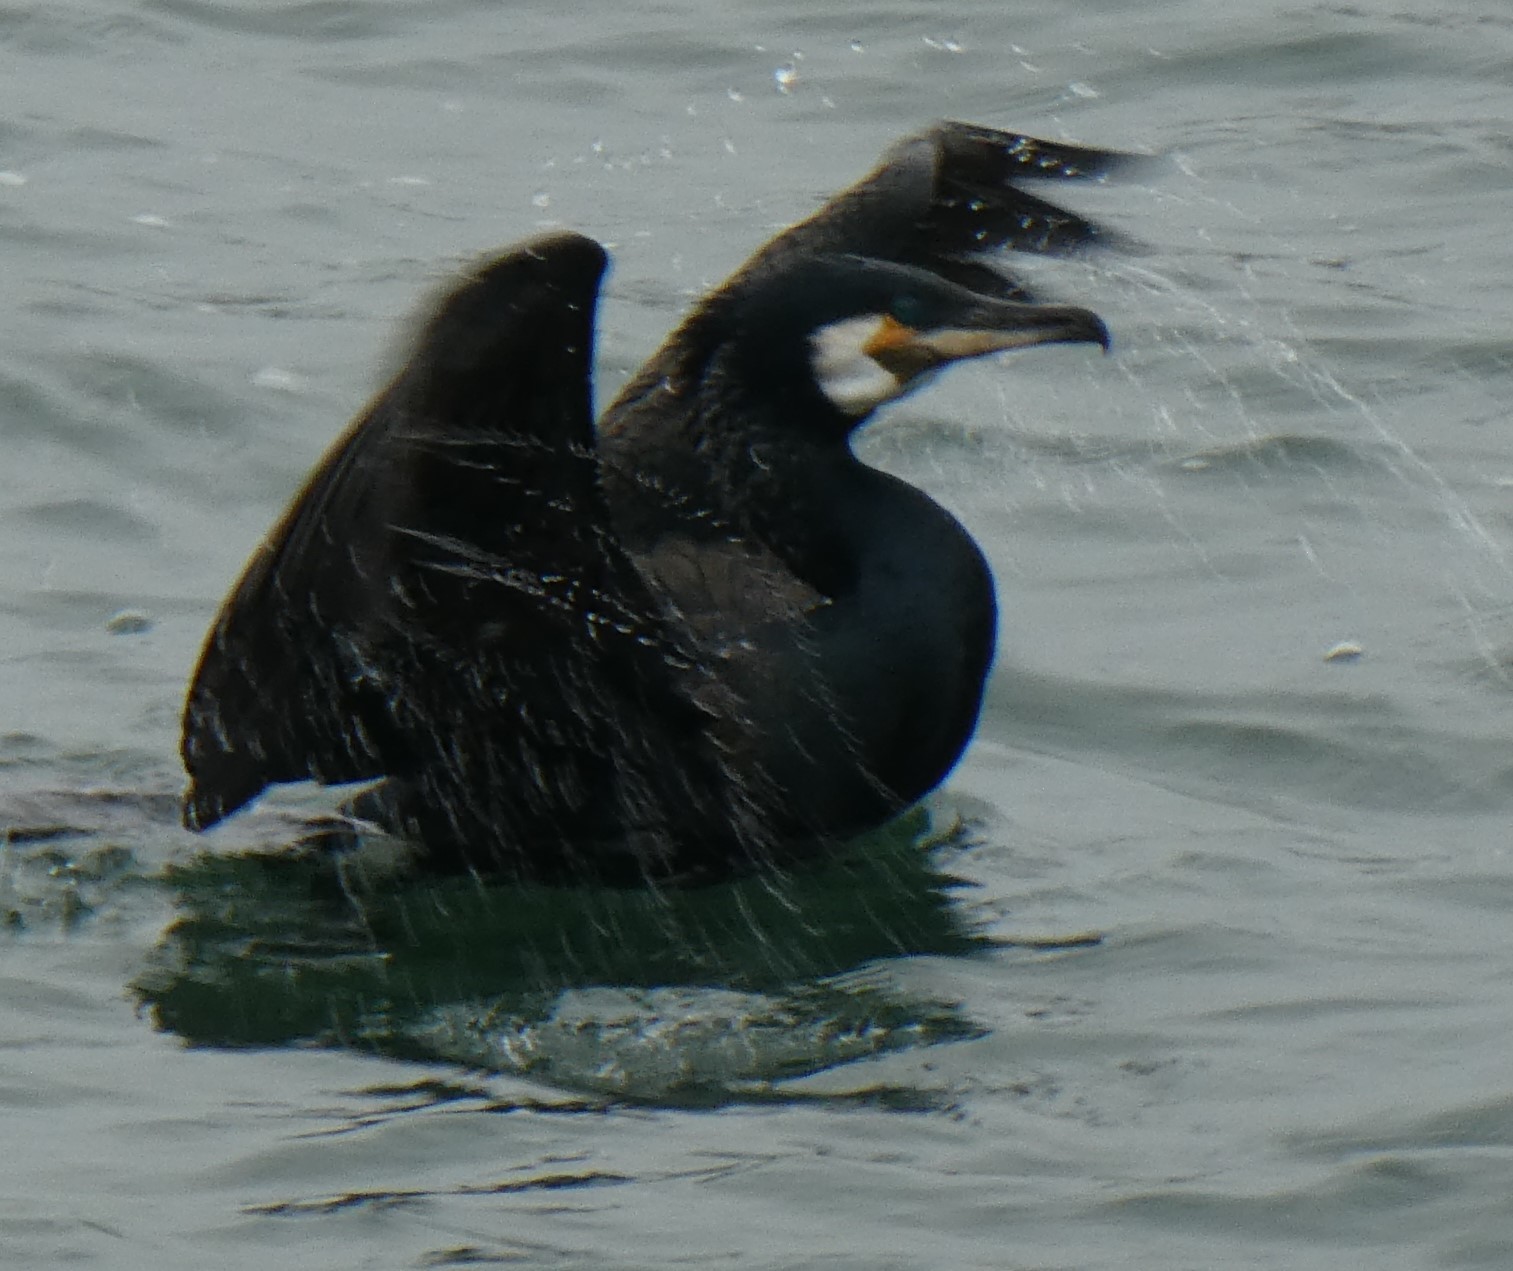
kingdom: Animalia
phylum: Chordata
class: Aves
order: Suliformes
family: Phalacrocoracidae
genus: Phalacrocorax
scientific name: Phalacrocorax carbo
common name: Great cormorant
